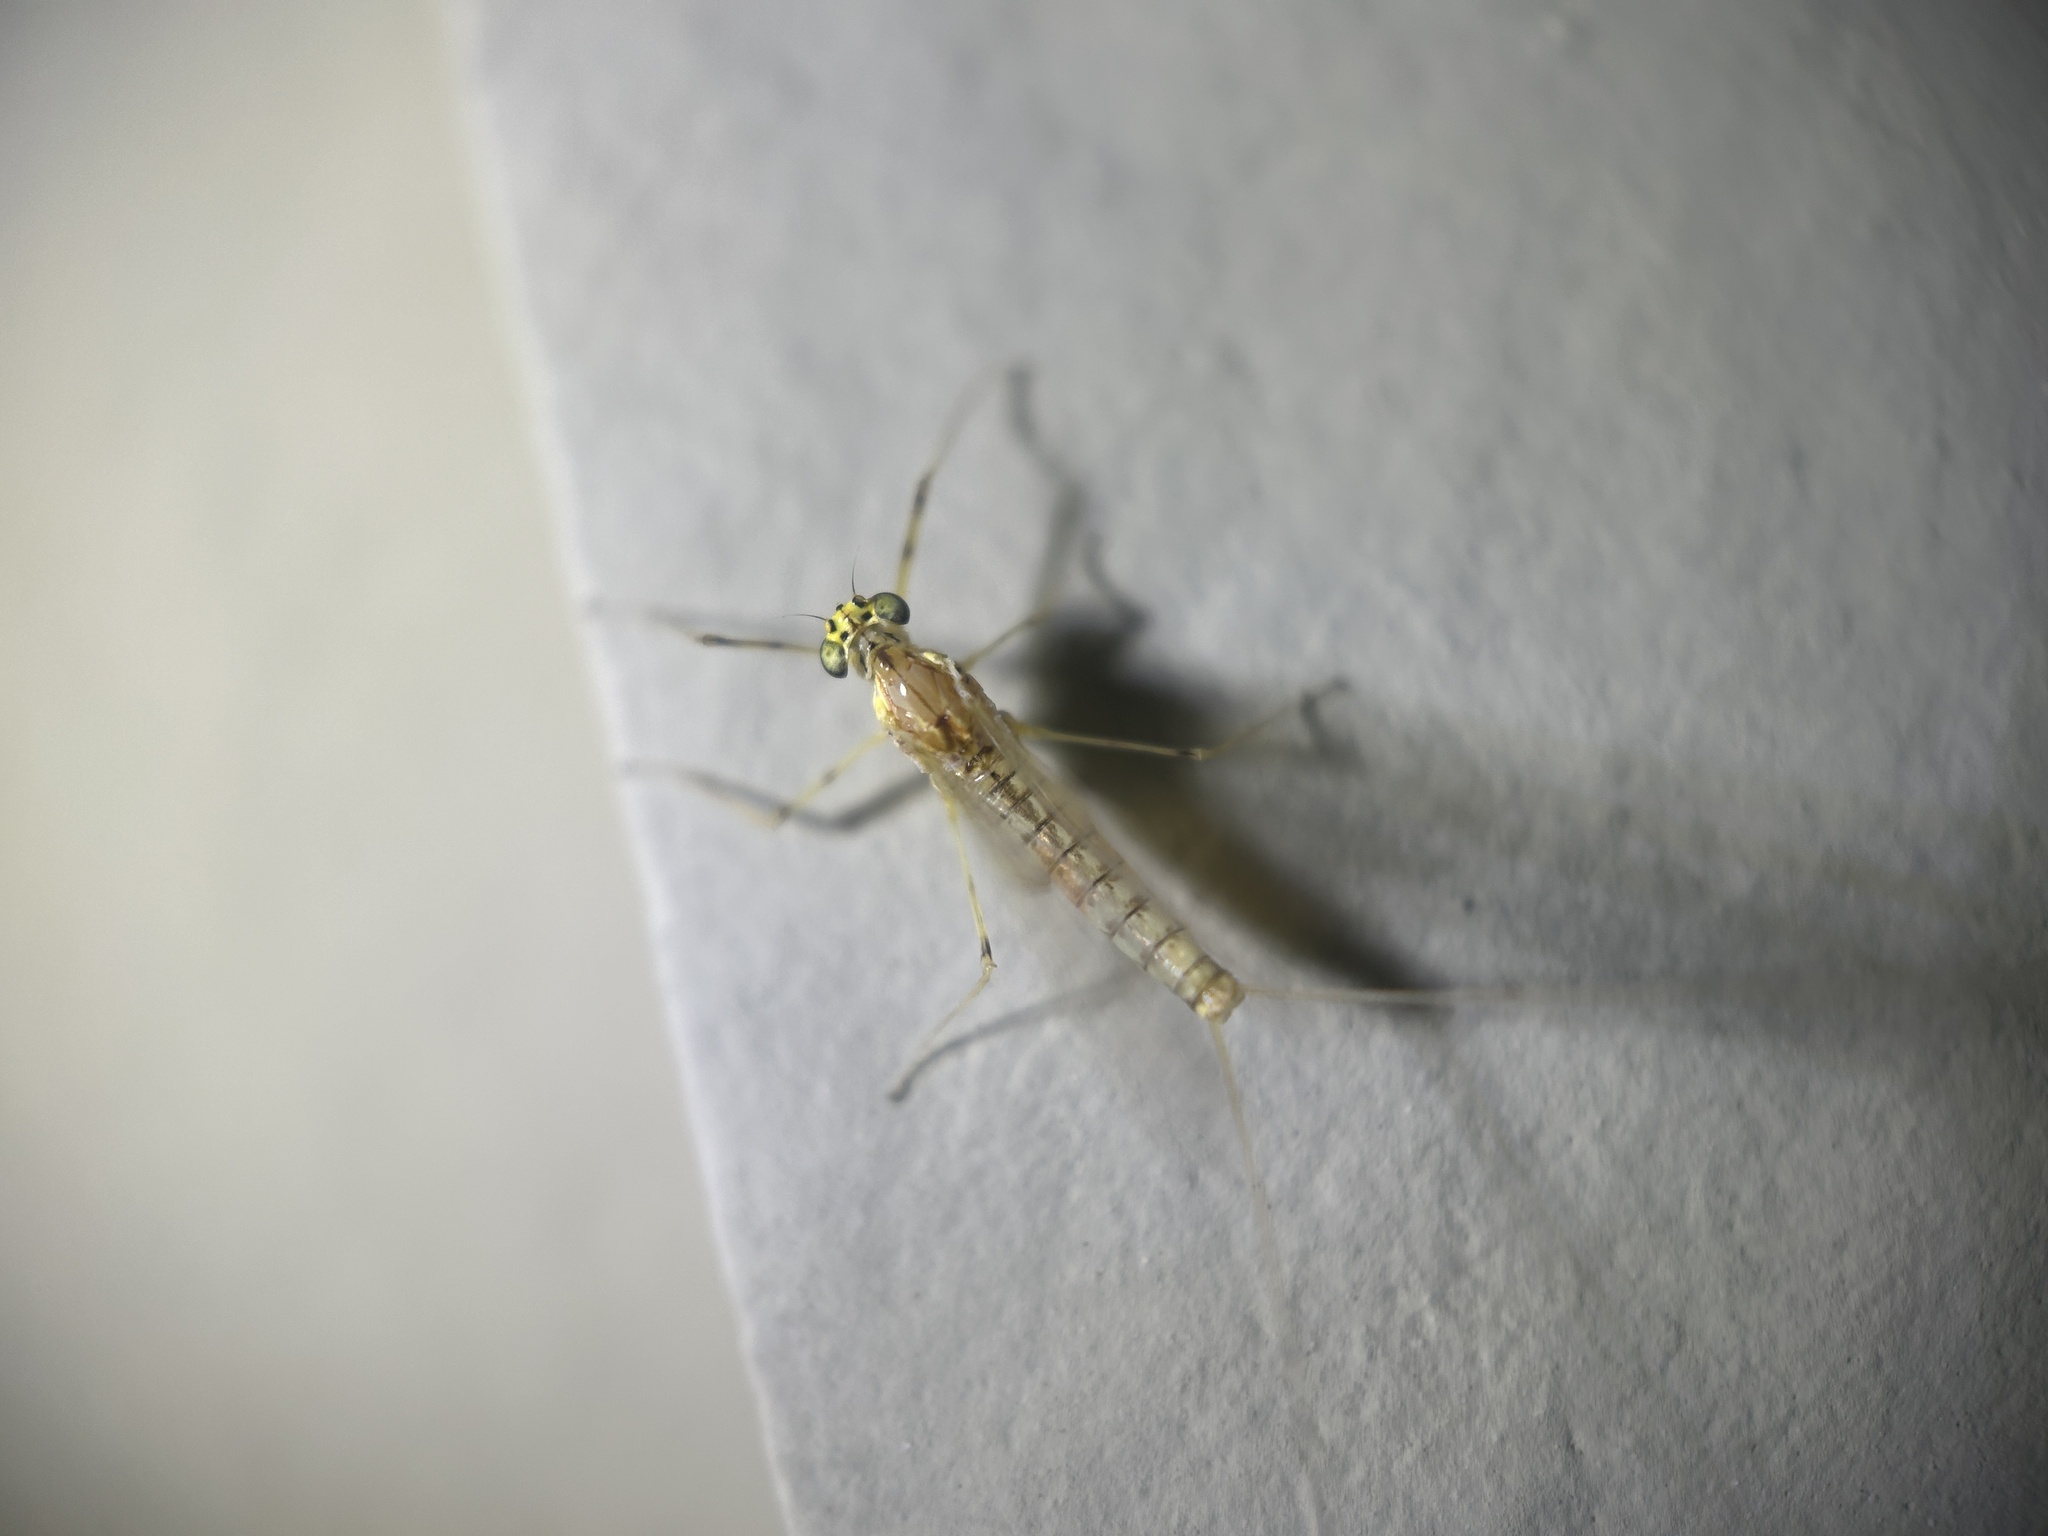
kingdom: Animalia
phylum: Arthropoda
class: Insecta
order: Ephemeroptera
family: Heptageniidae
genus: Stenacron
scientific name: Stenacron interpunctatum
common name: Orange cahill
